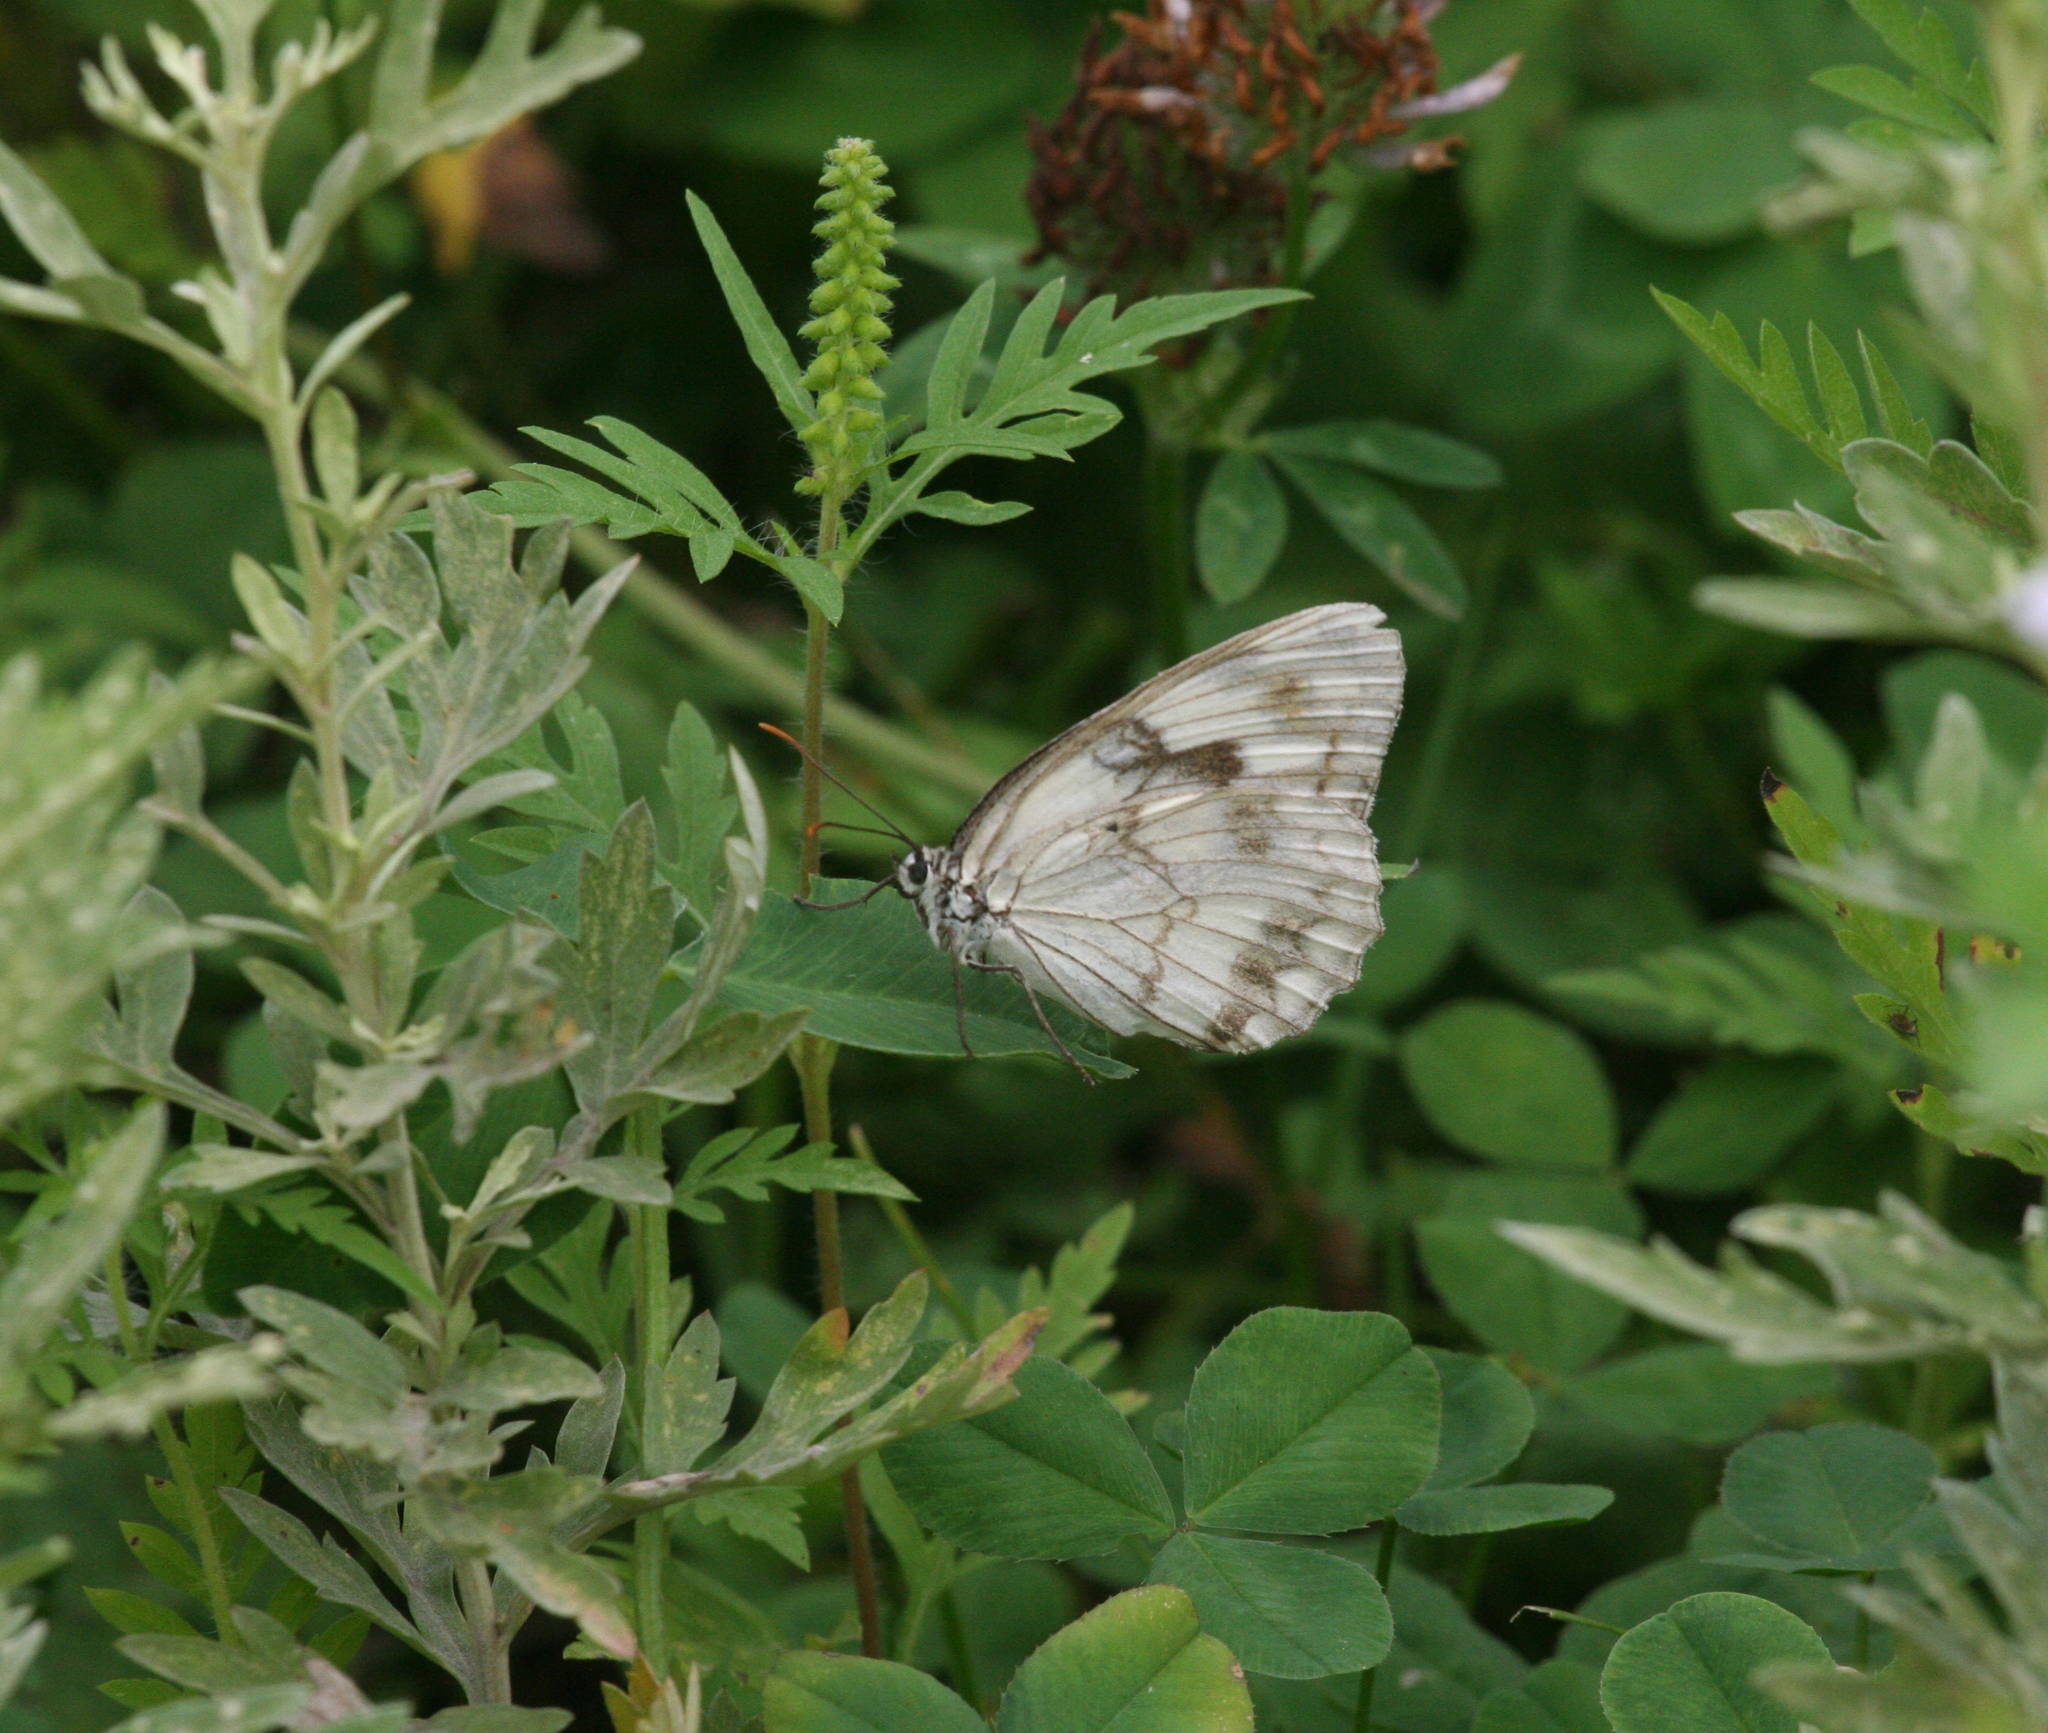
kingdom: Animalia
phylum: Arthropoda
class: Insecta
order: Lepidoptera
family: Nymphalidae
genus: Melanargia
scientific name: Melanargia halimede
